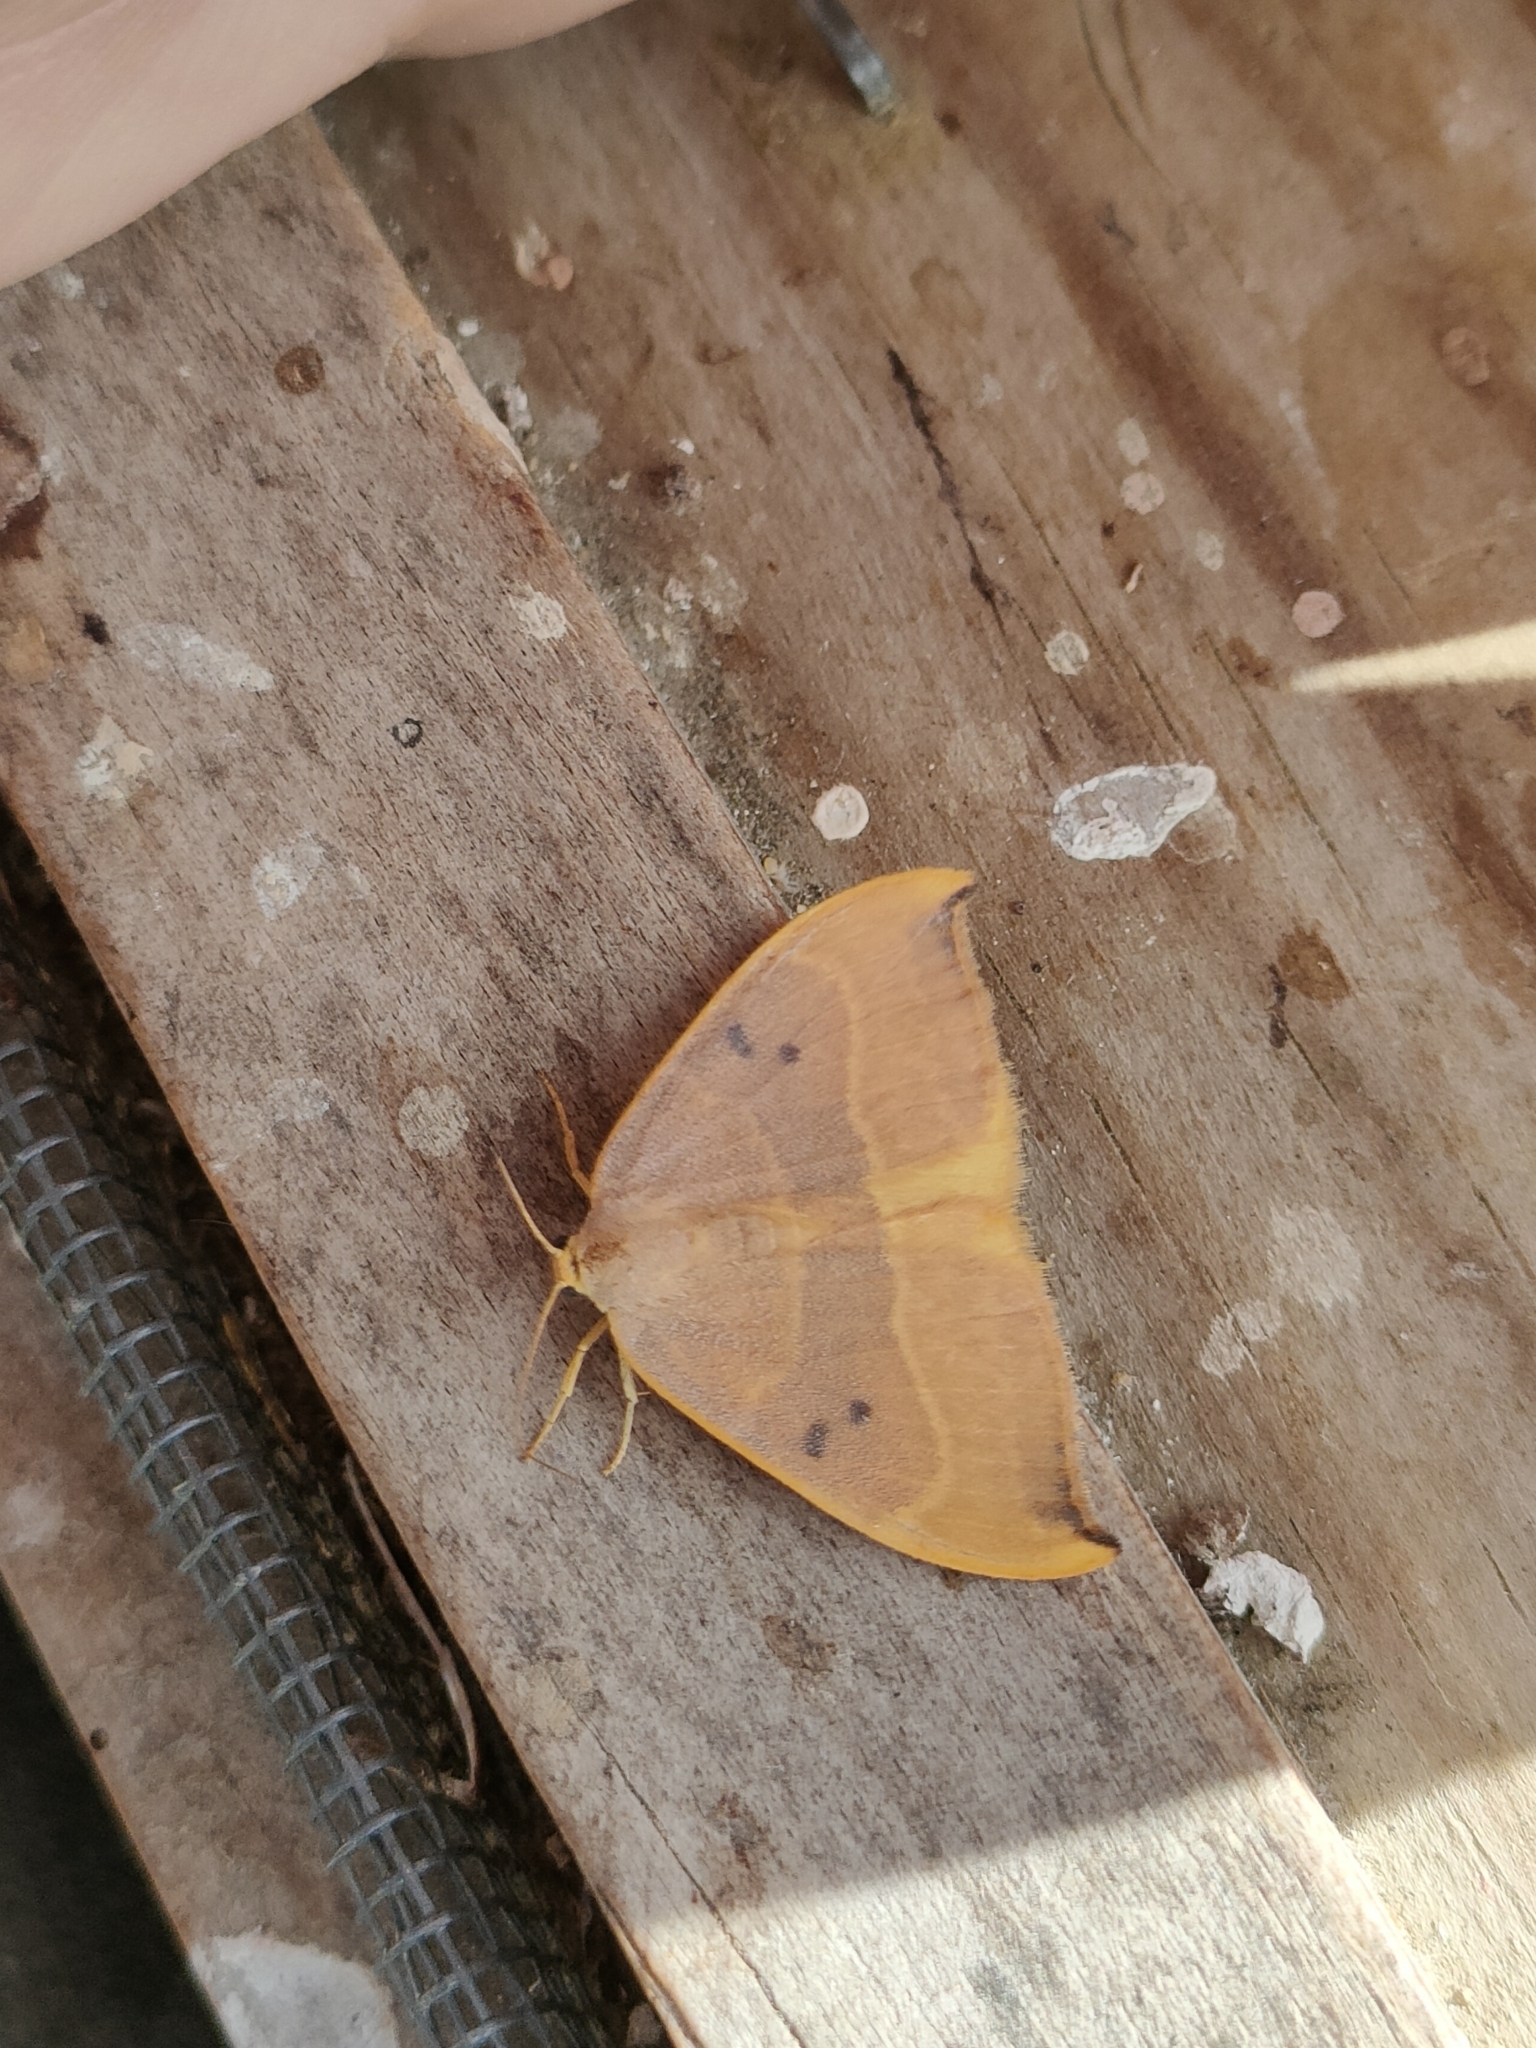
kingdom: Animalia
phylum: Arthropoda
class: Insecta
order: Lepidoptera
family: Drepanidae
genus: Watsonalla
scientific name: Watsonalla binaria
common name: Oak hook-tip
